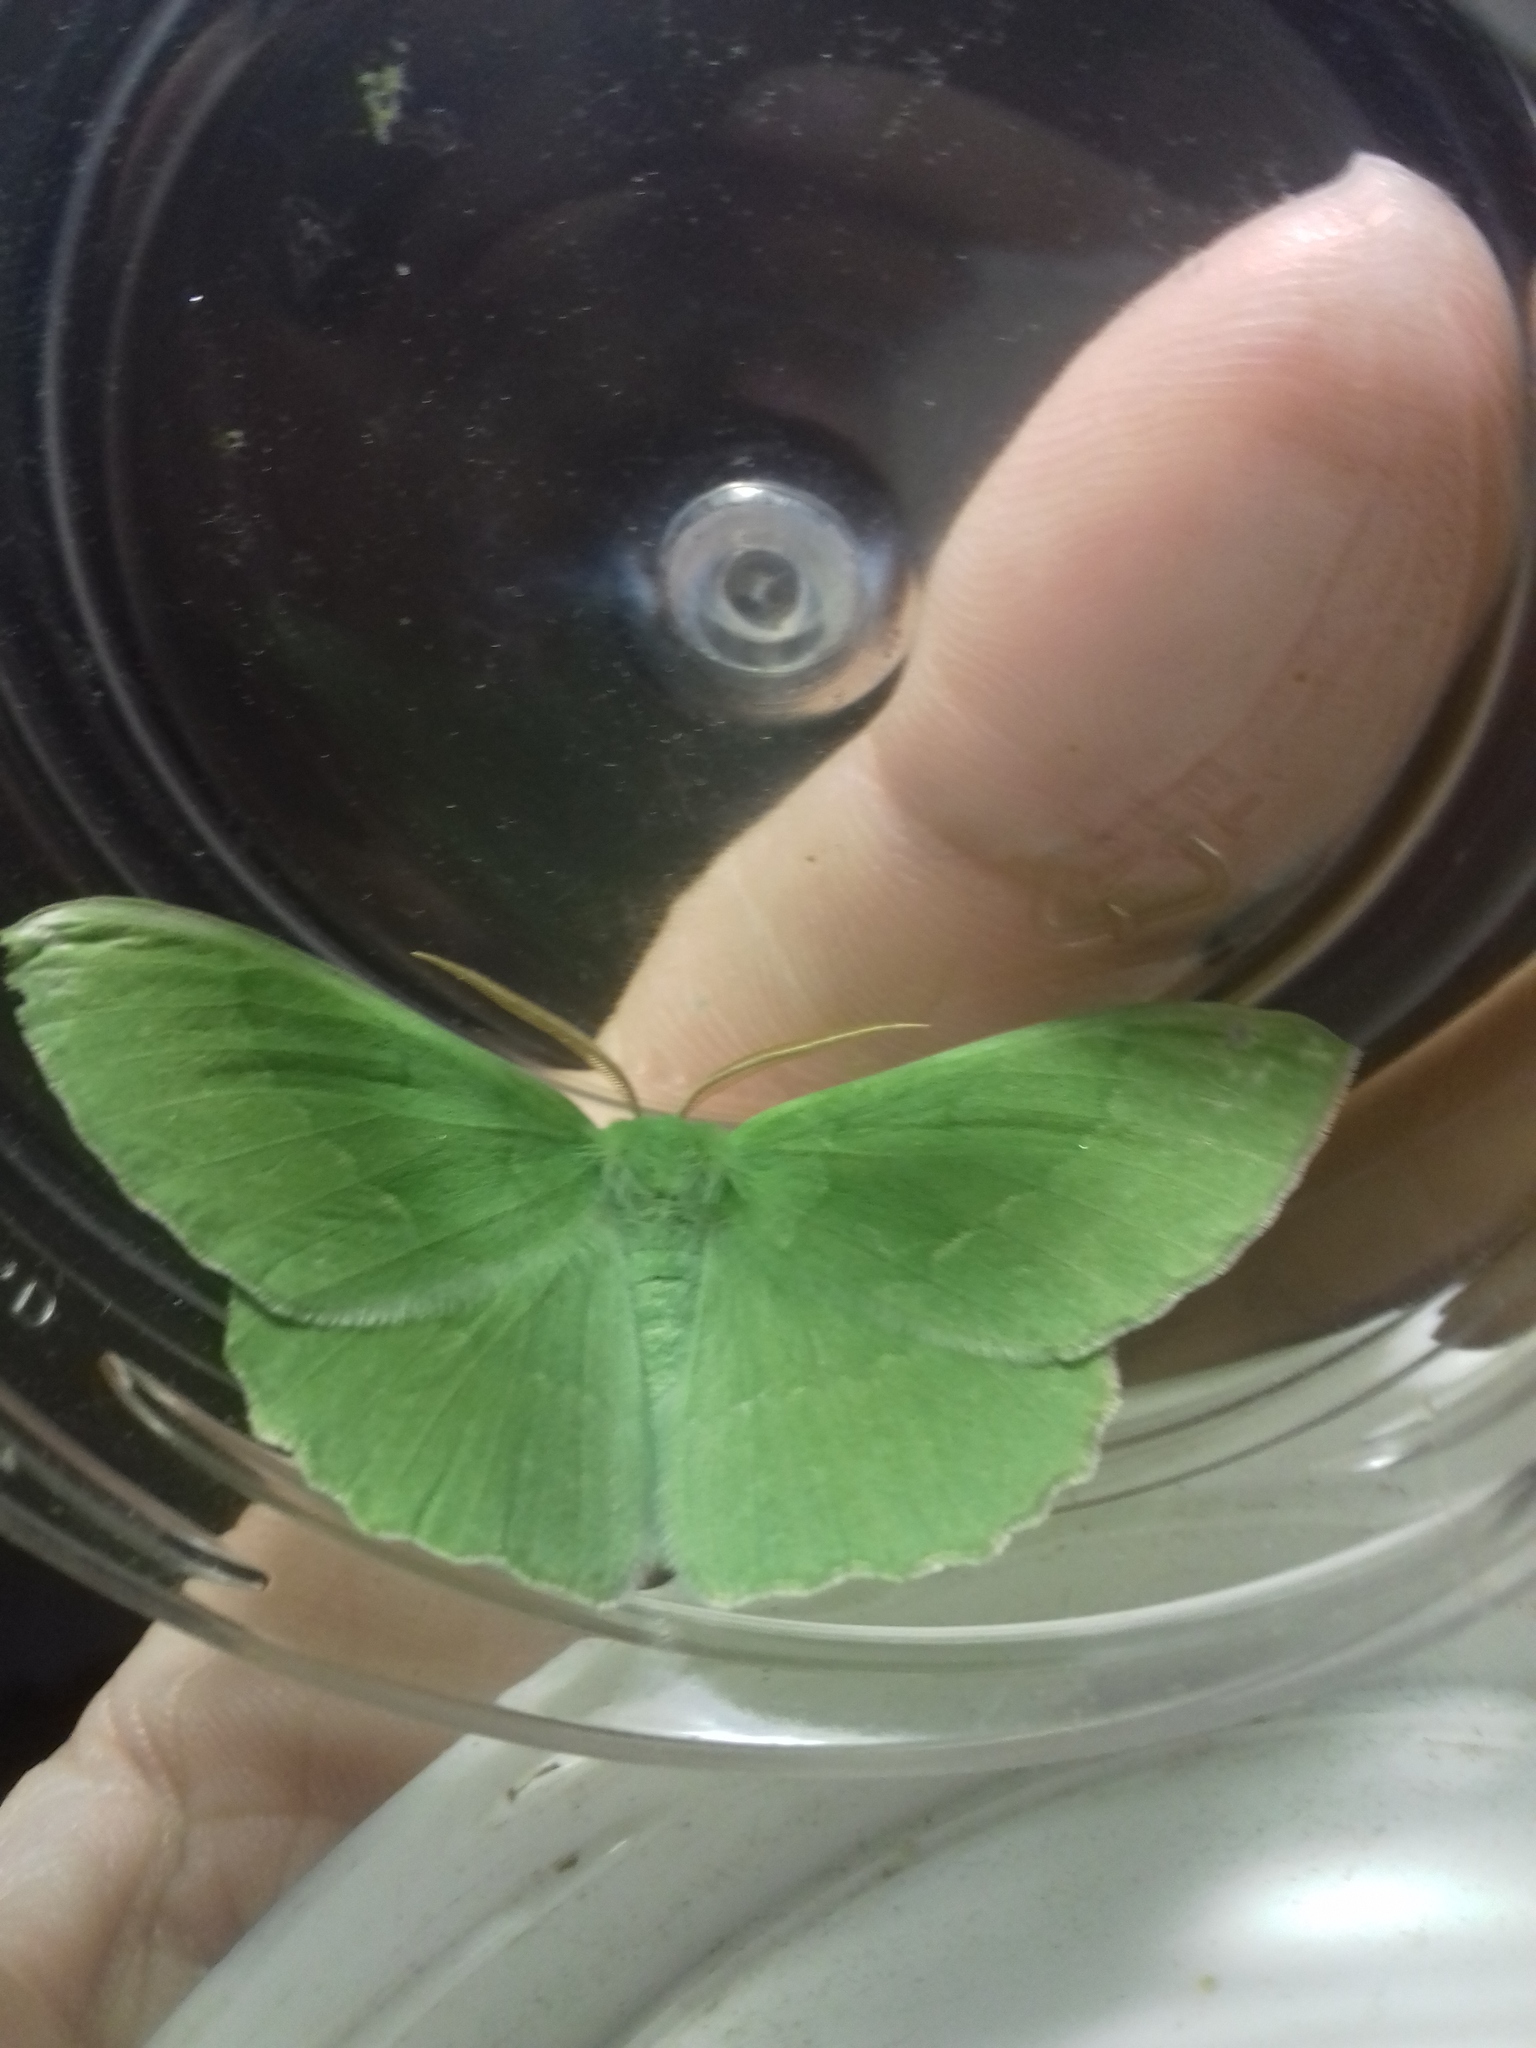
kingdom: Animalia
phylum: Arthropoda
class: Insecta
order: Lepidoptera
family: Geometridae
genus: Geometra
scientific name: Geometra papilionaria
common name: Large emerald
